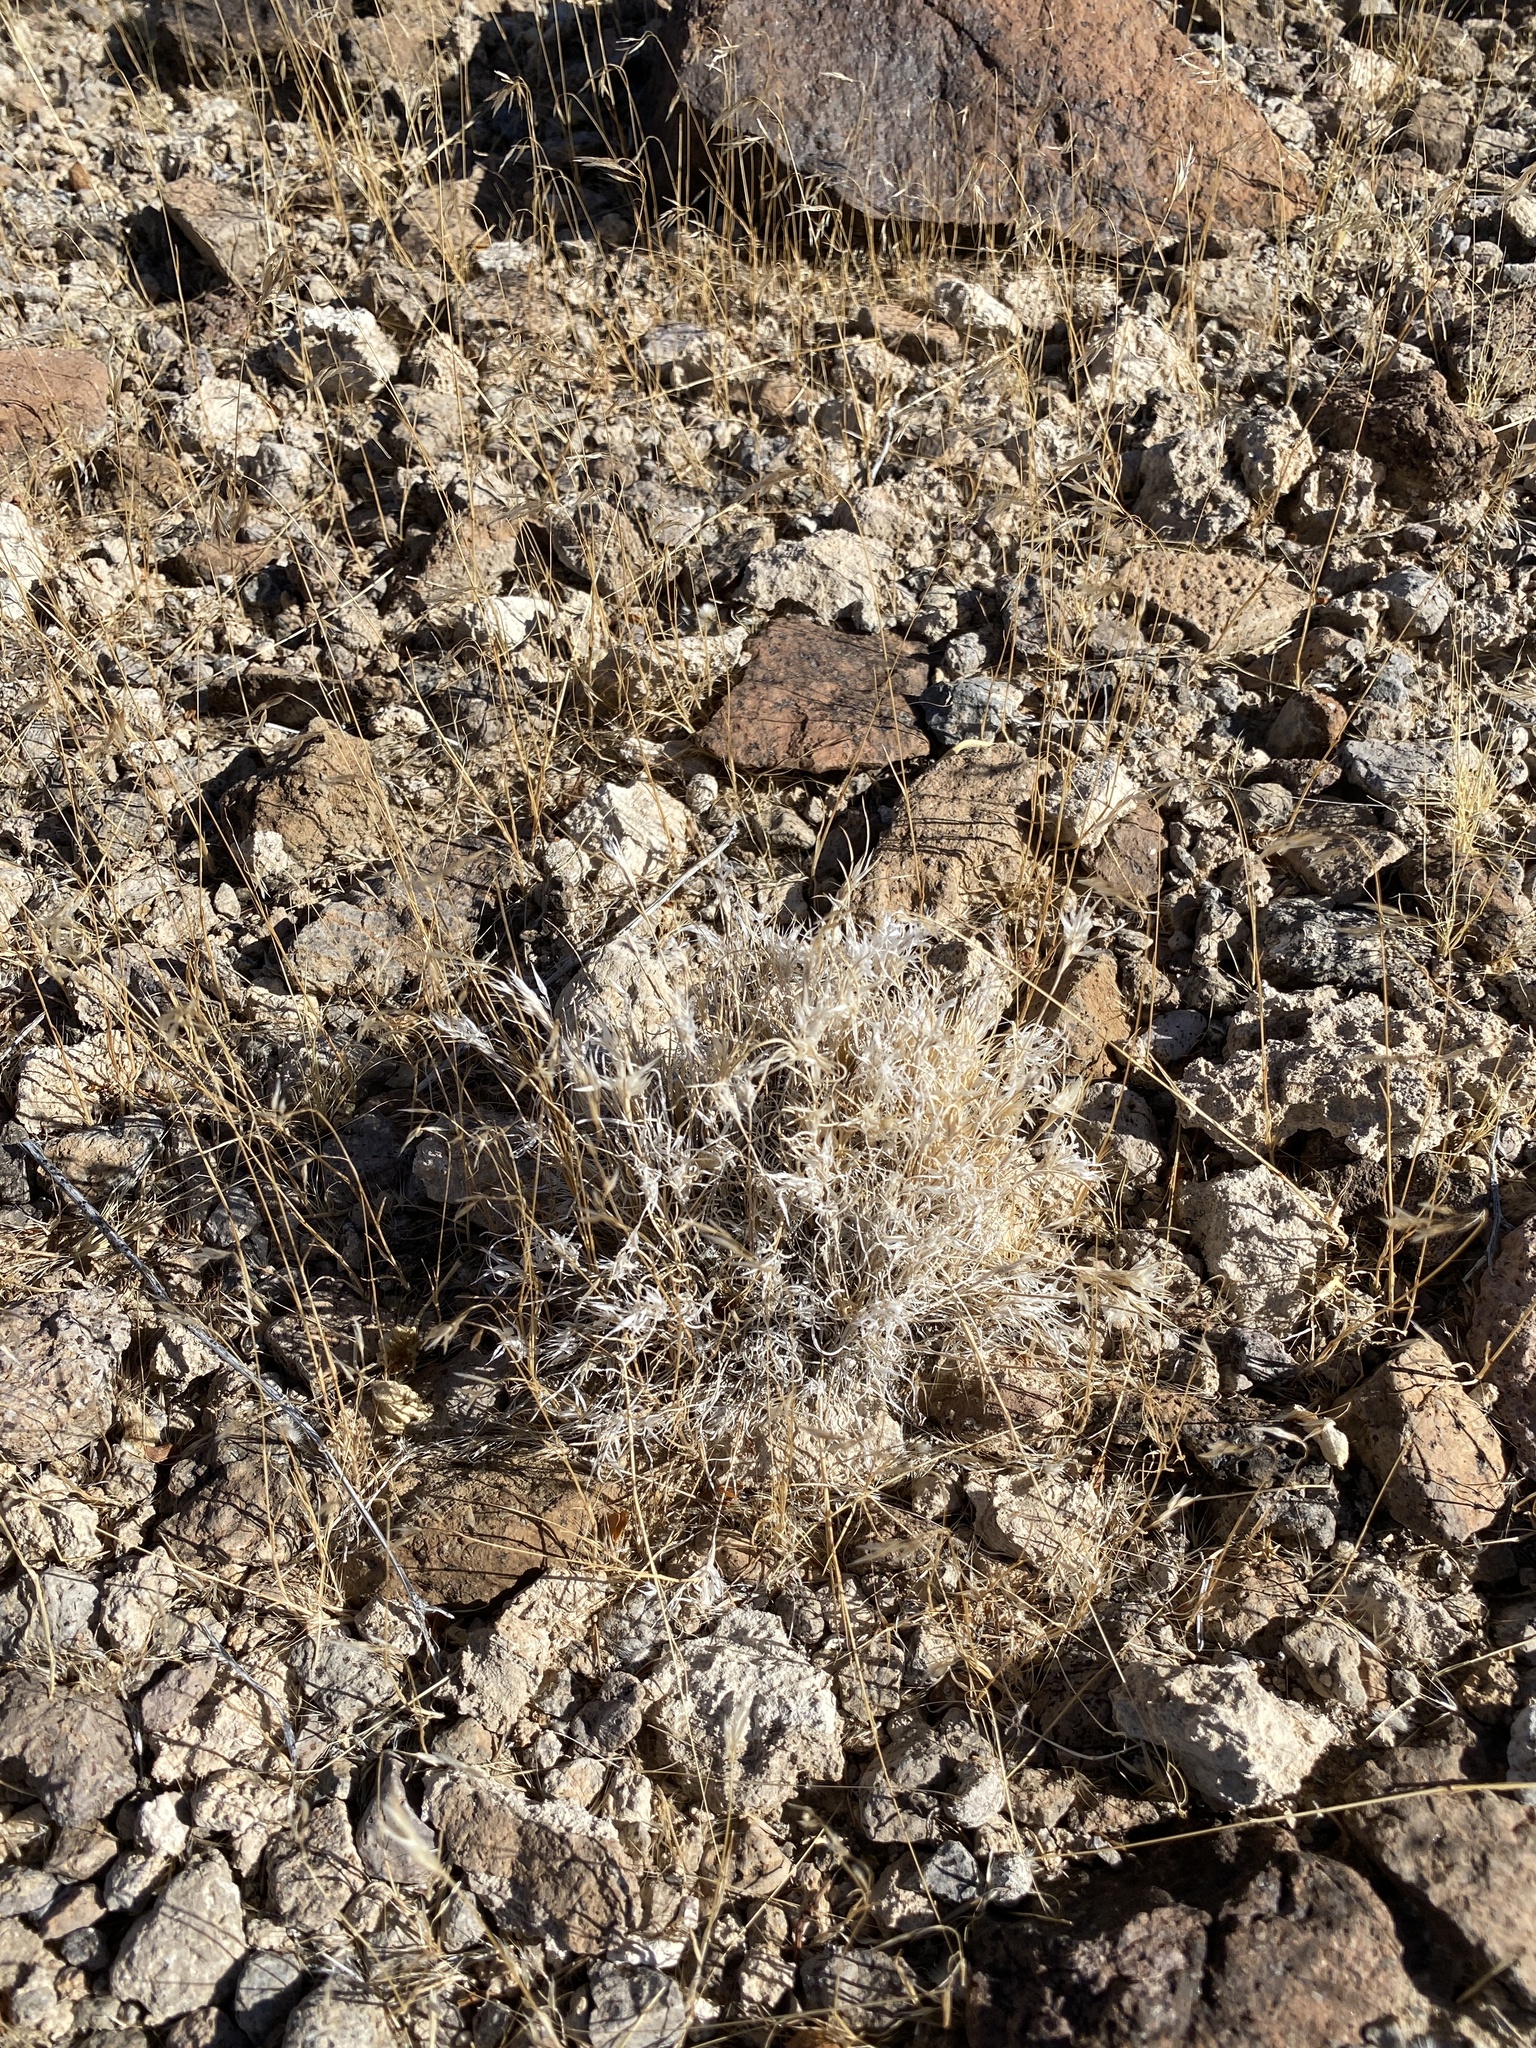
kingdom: Plantae
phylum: Tracheophyta
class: Liliopsida
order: Poales
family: Poaceae
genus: Dasyochloa
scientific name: Dasyochloa pulchella
